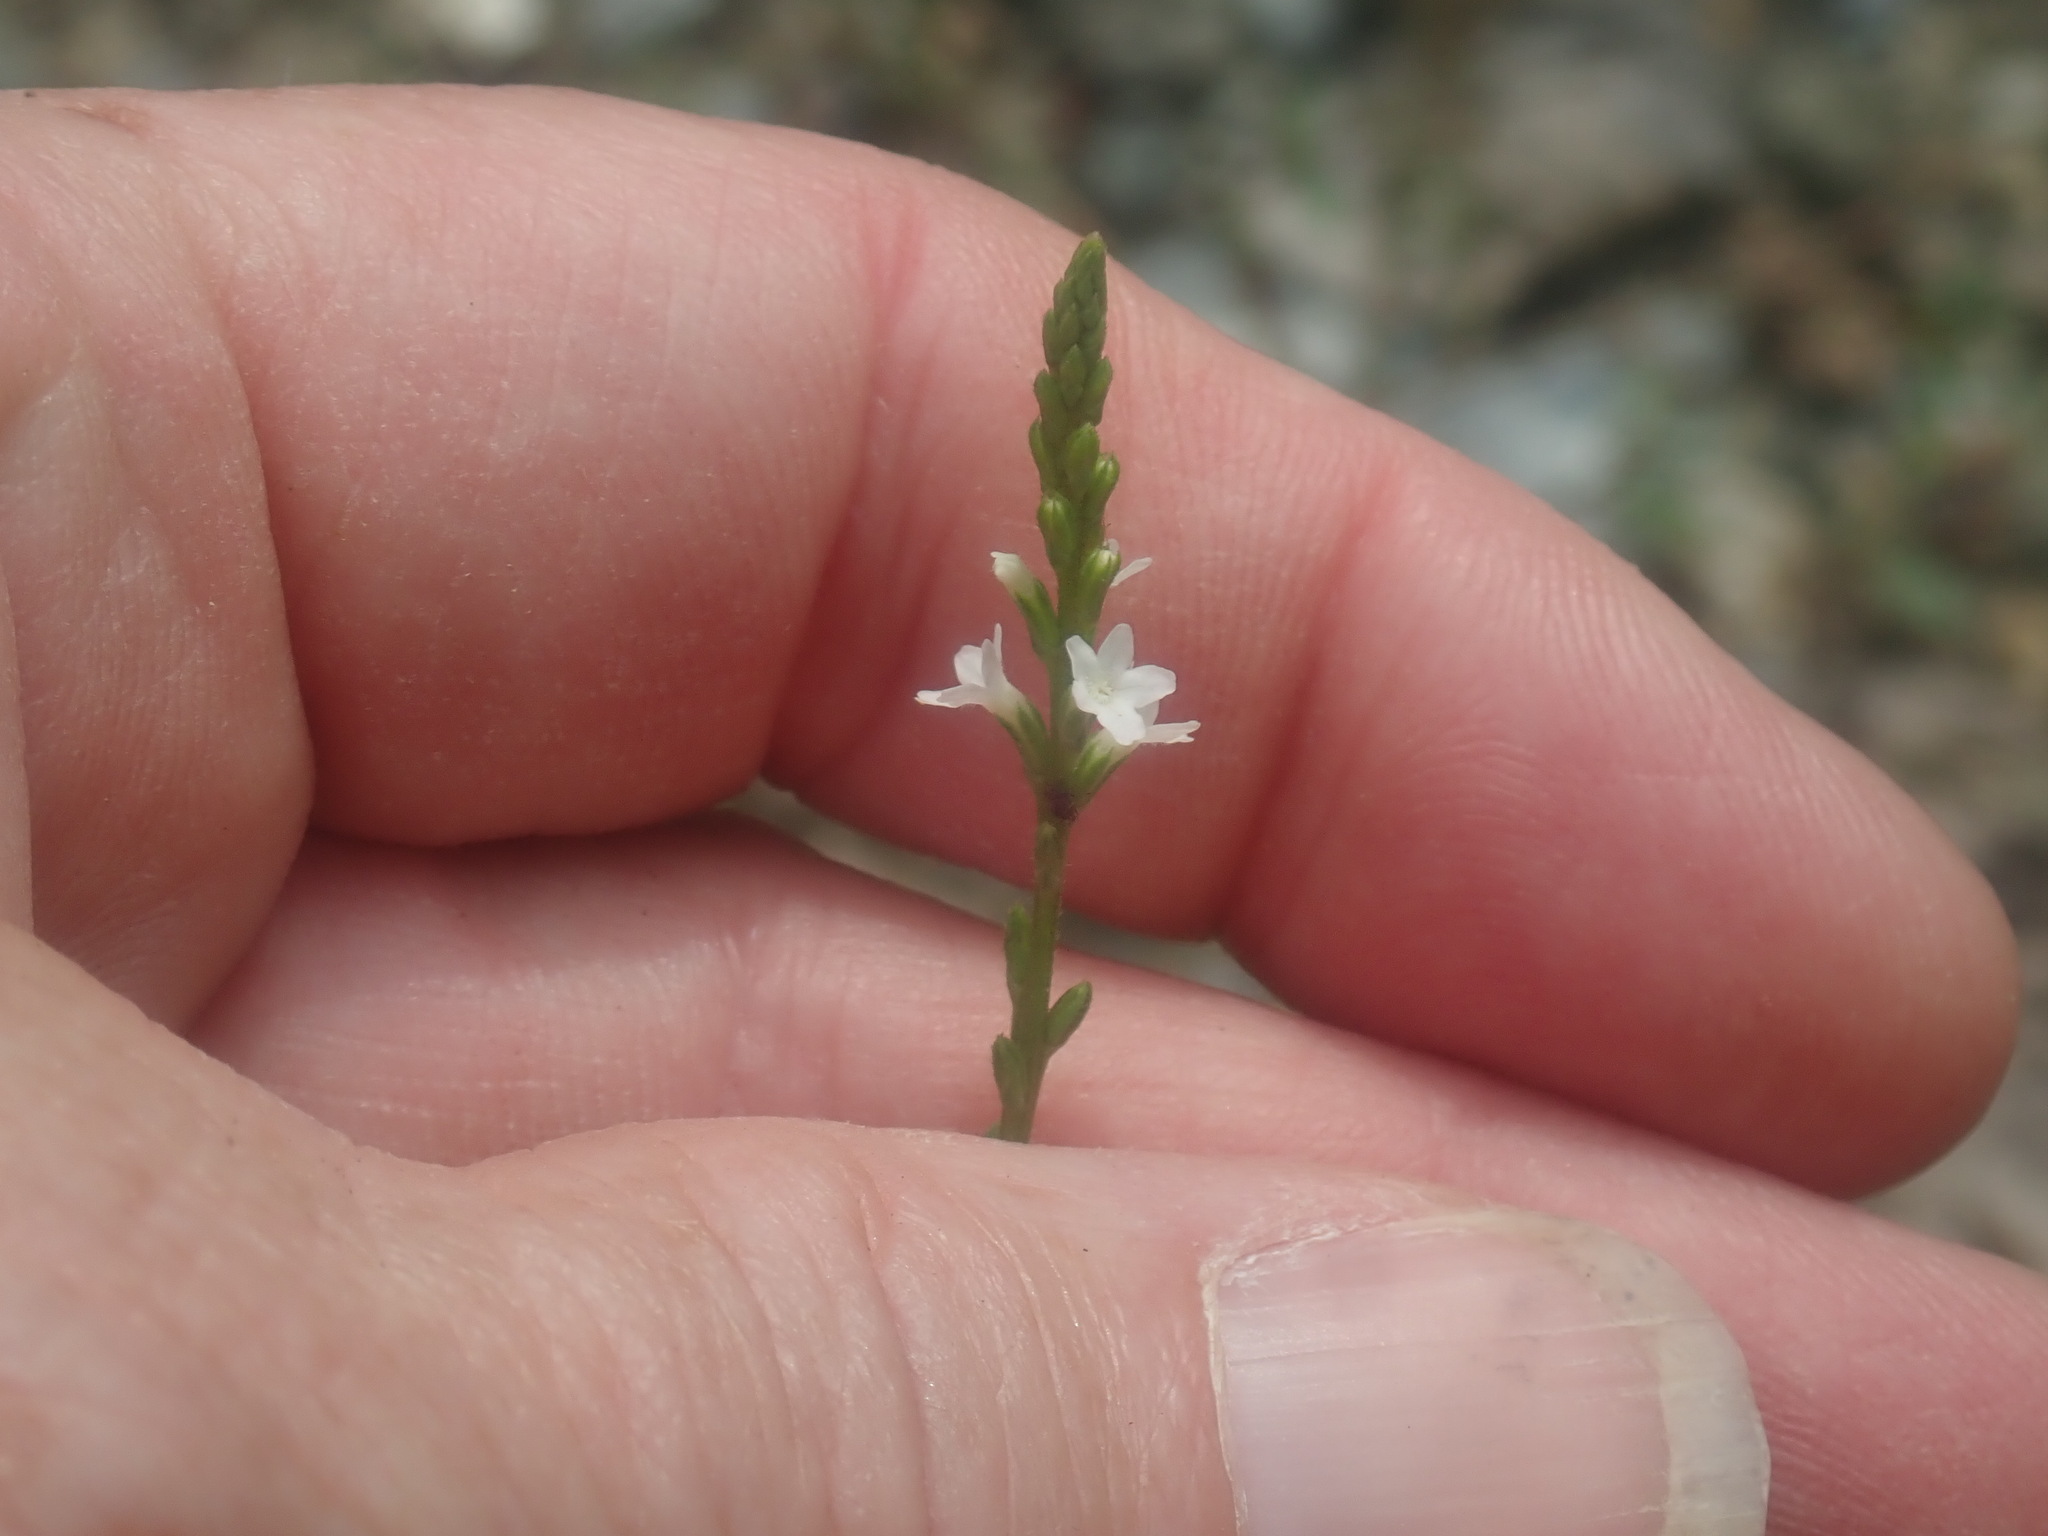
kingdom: Plantae
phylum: Tracheophyta
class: Magnoliopsida
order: Lamiales
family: Verbenaceae
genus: Verbena
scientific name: Verbena urticifolia
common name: Nettle-leaved vervain
